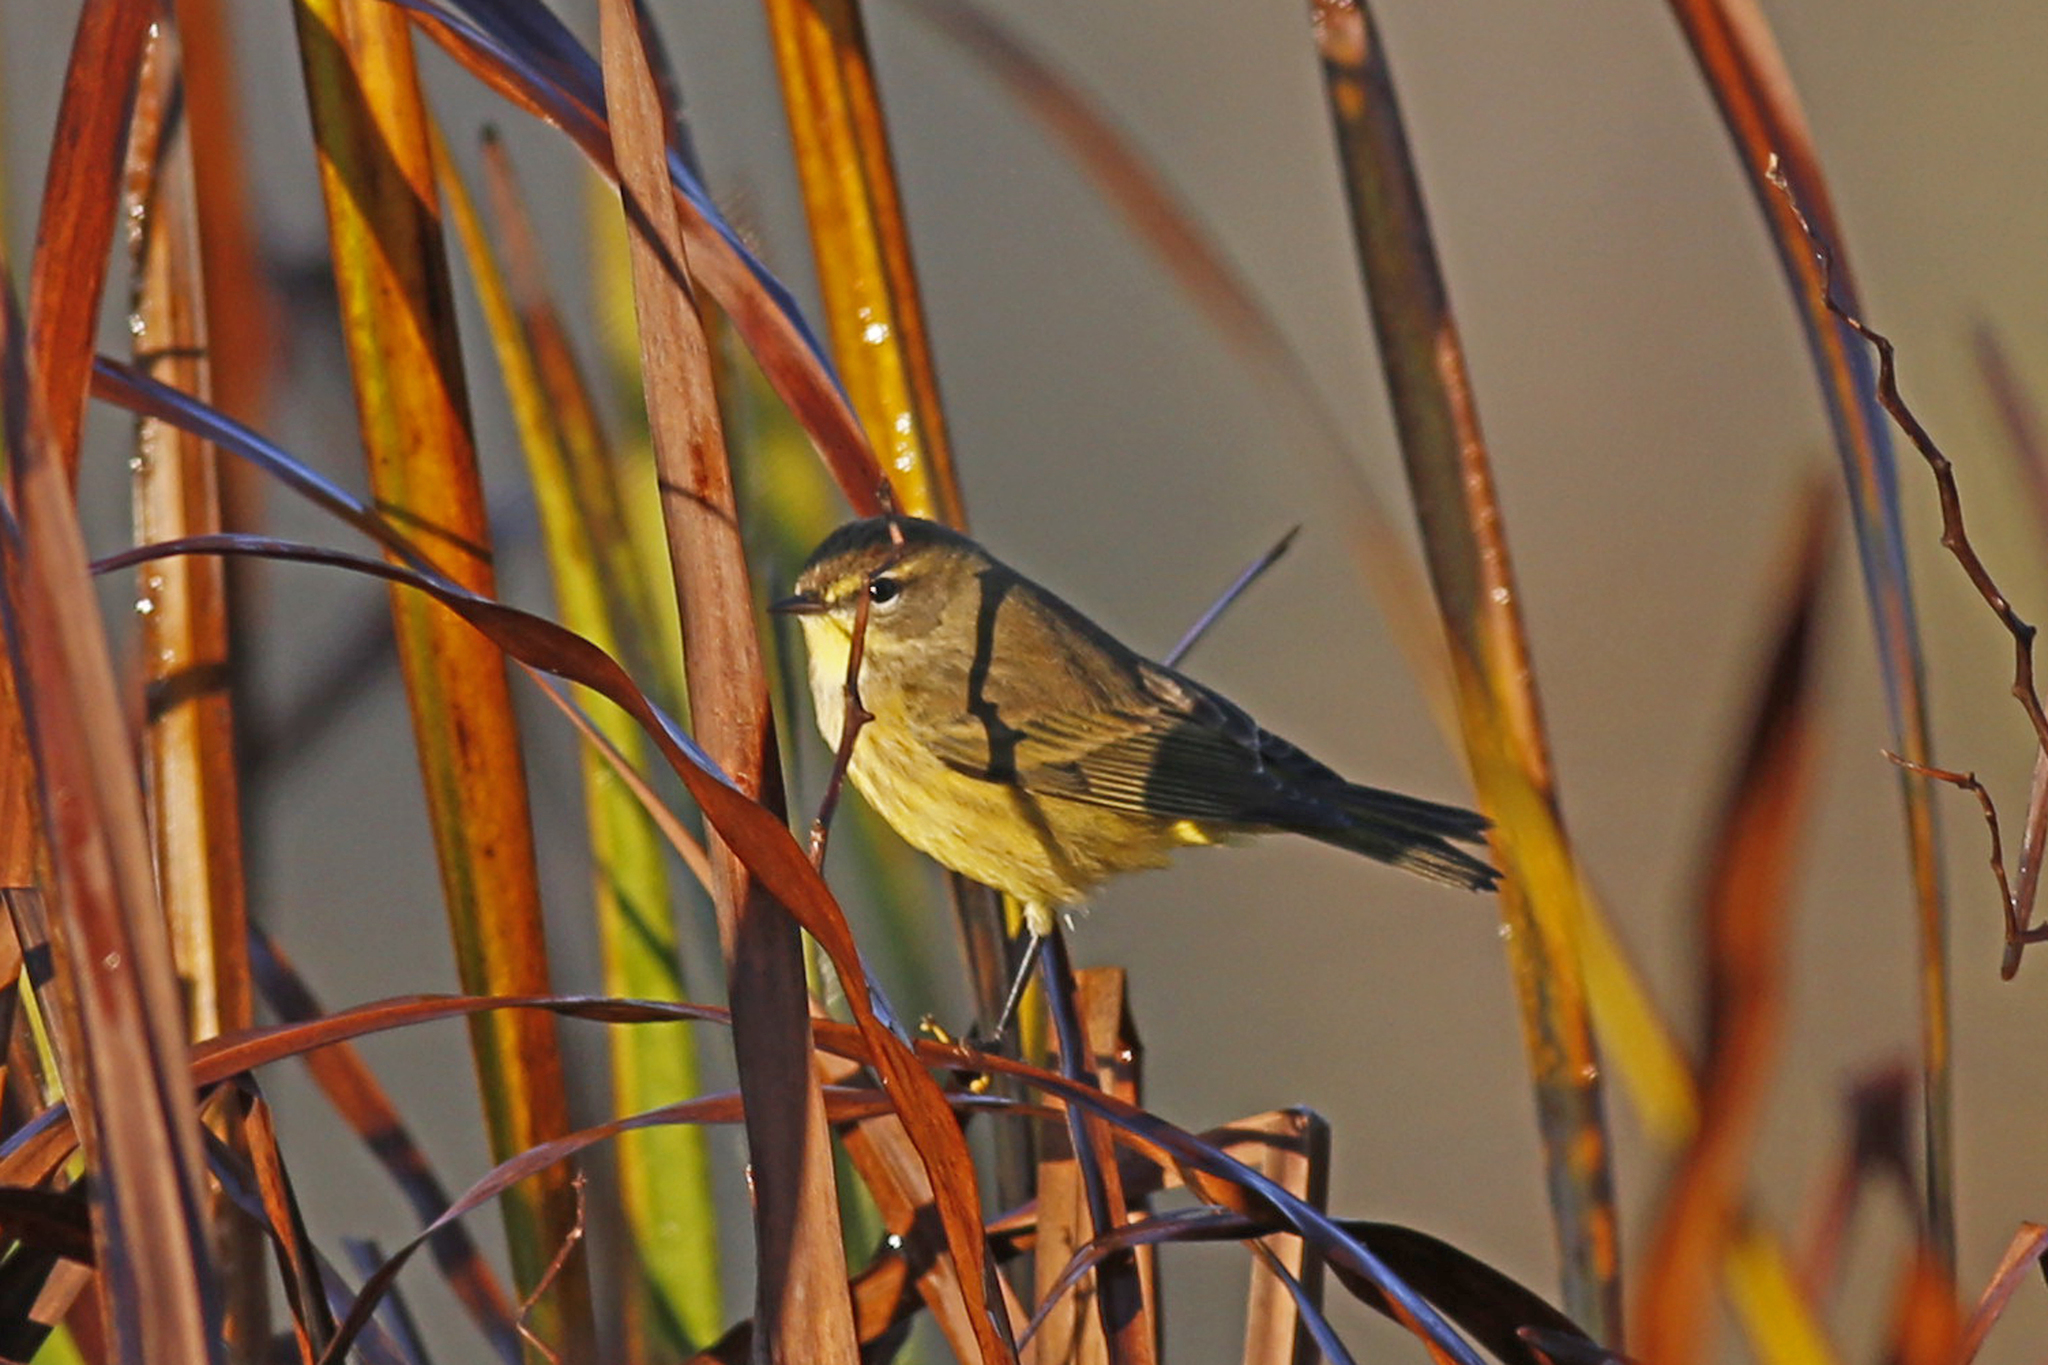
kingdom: Animalia
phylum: Chordata
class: Aves
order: Passeriformes
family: Parulidae
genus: Setophaga
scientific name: Setophaga palmarum
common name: Palm warbler
